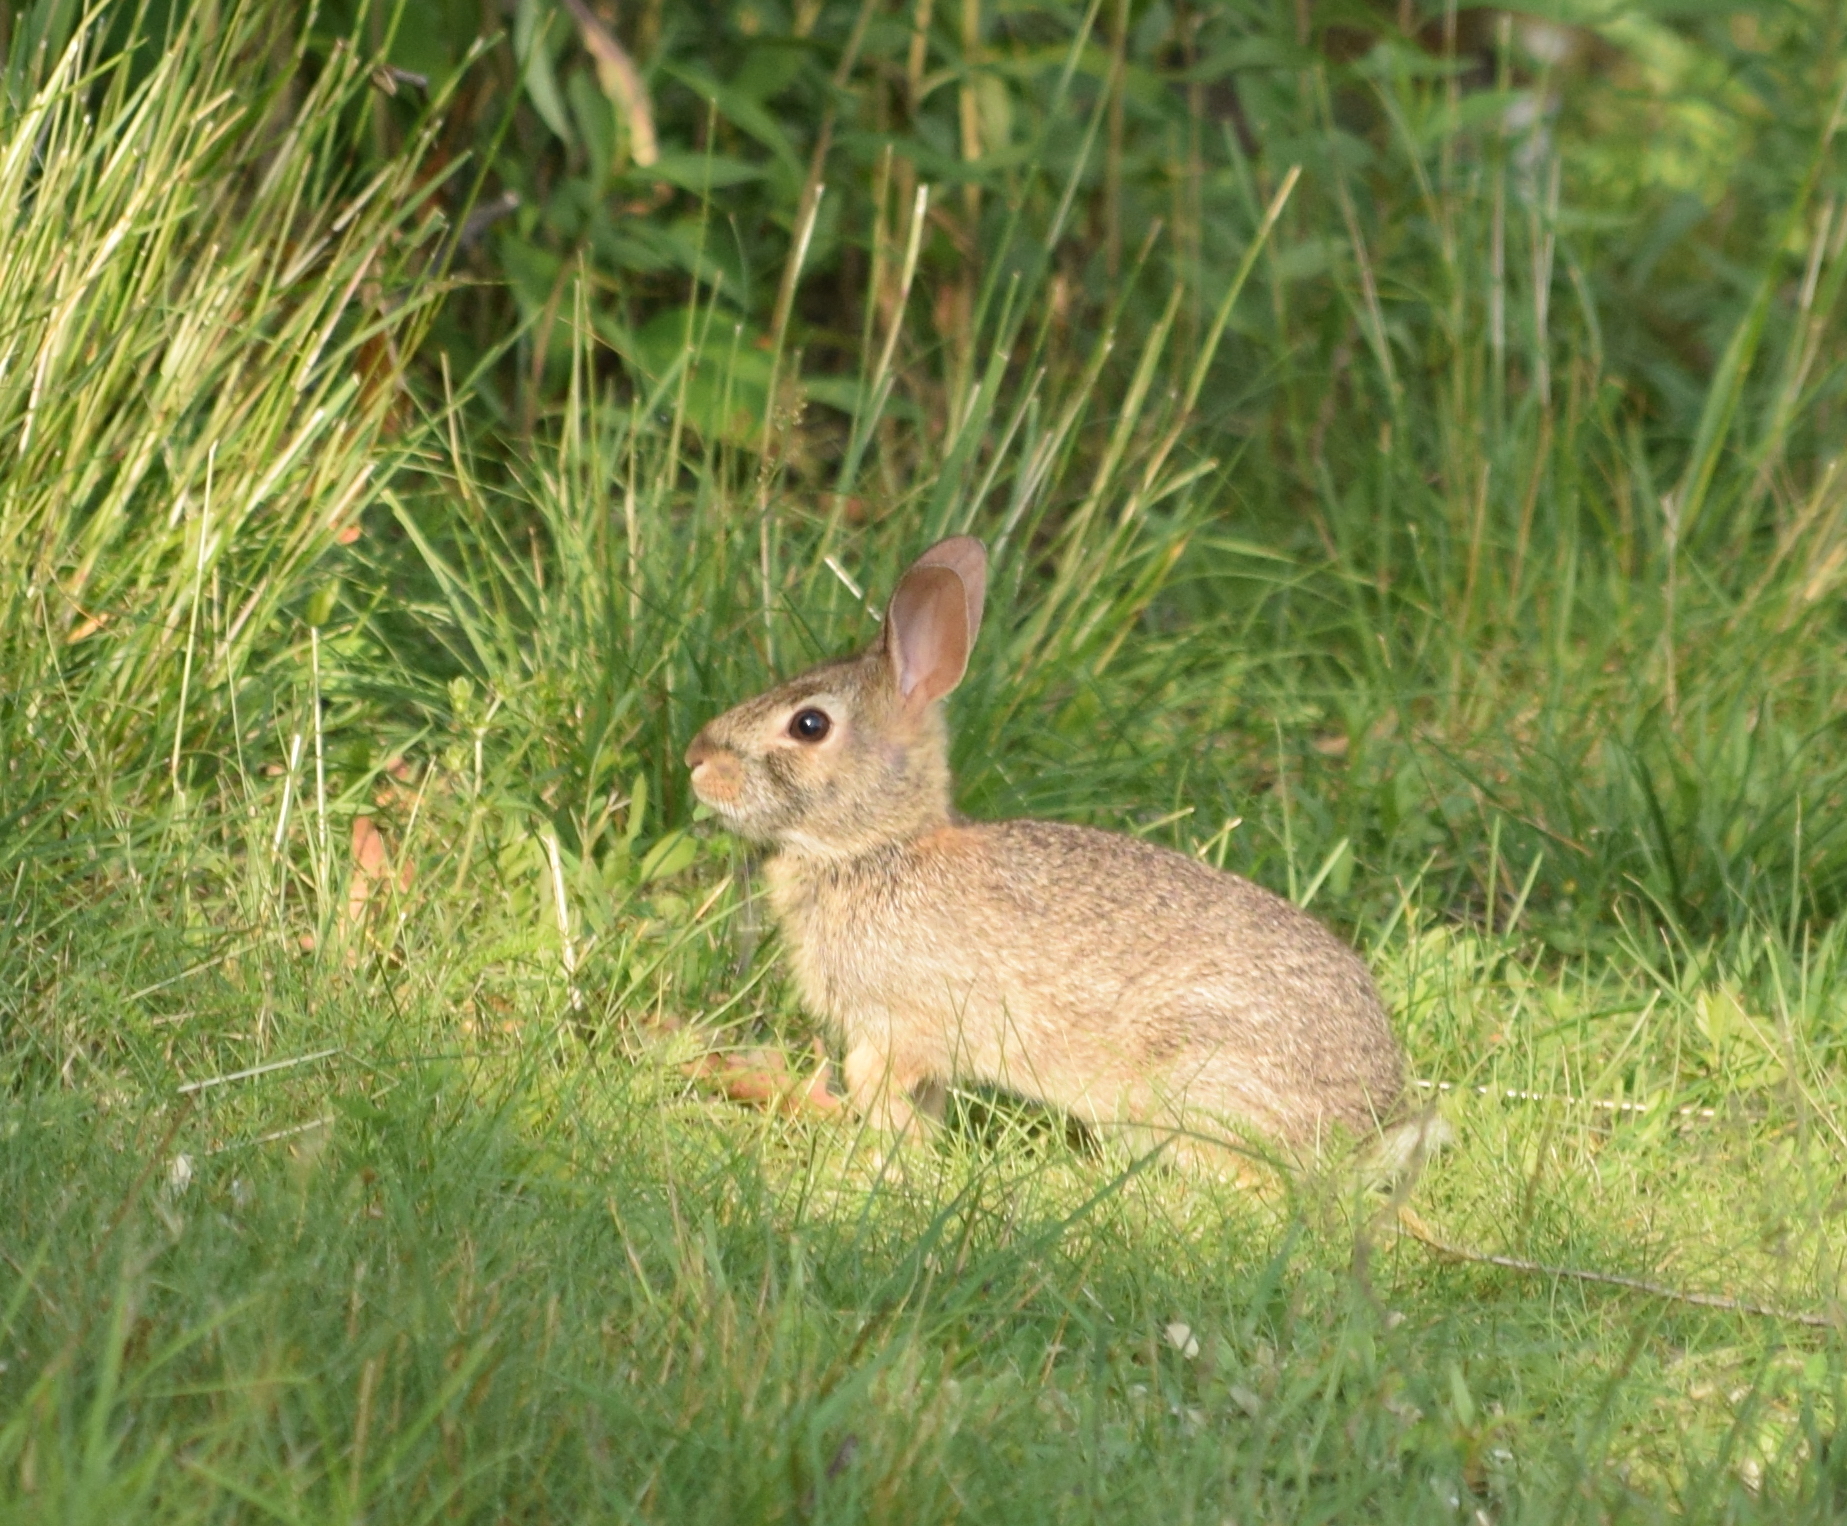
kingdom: Animalia
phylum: Chordata
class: Mammalia
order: Lagomorpha
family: Leporidae
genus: Sylvilagus
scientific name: Sylvilagus floridanus
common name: Eastern cottontail
